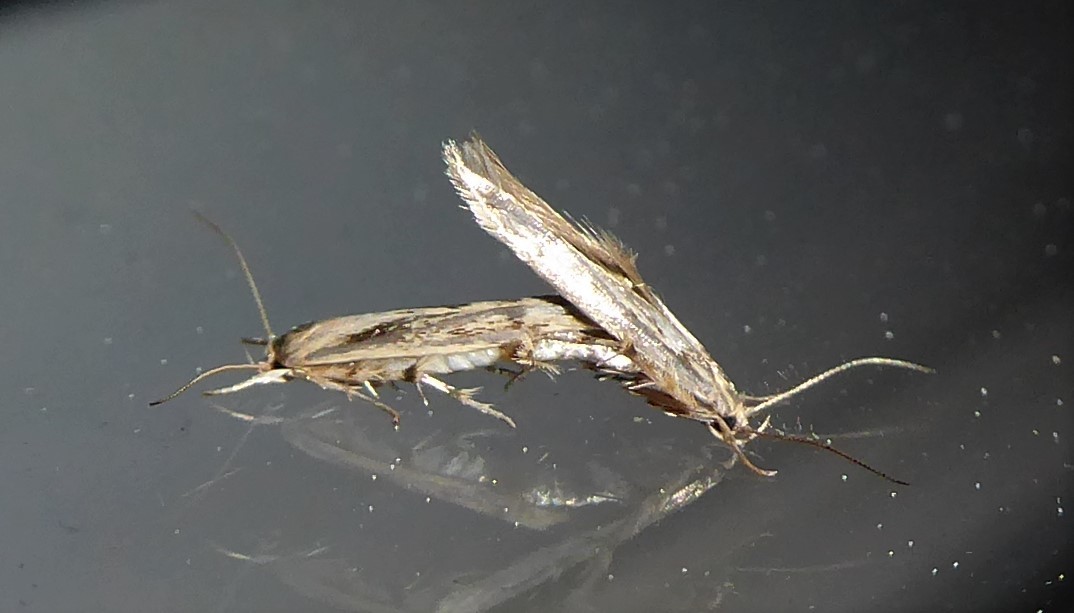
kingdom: Animalia
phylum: Arthropoda
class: Insecta
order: Lepidoptera
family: Stathmopodidae
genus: Stathmopoda
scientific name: Stathmopoda plumbiflua
